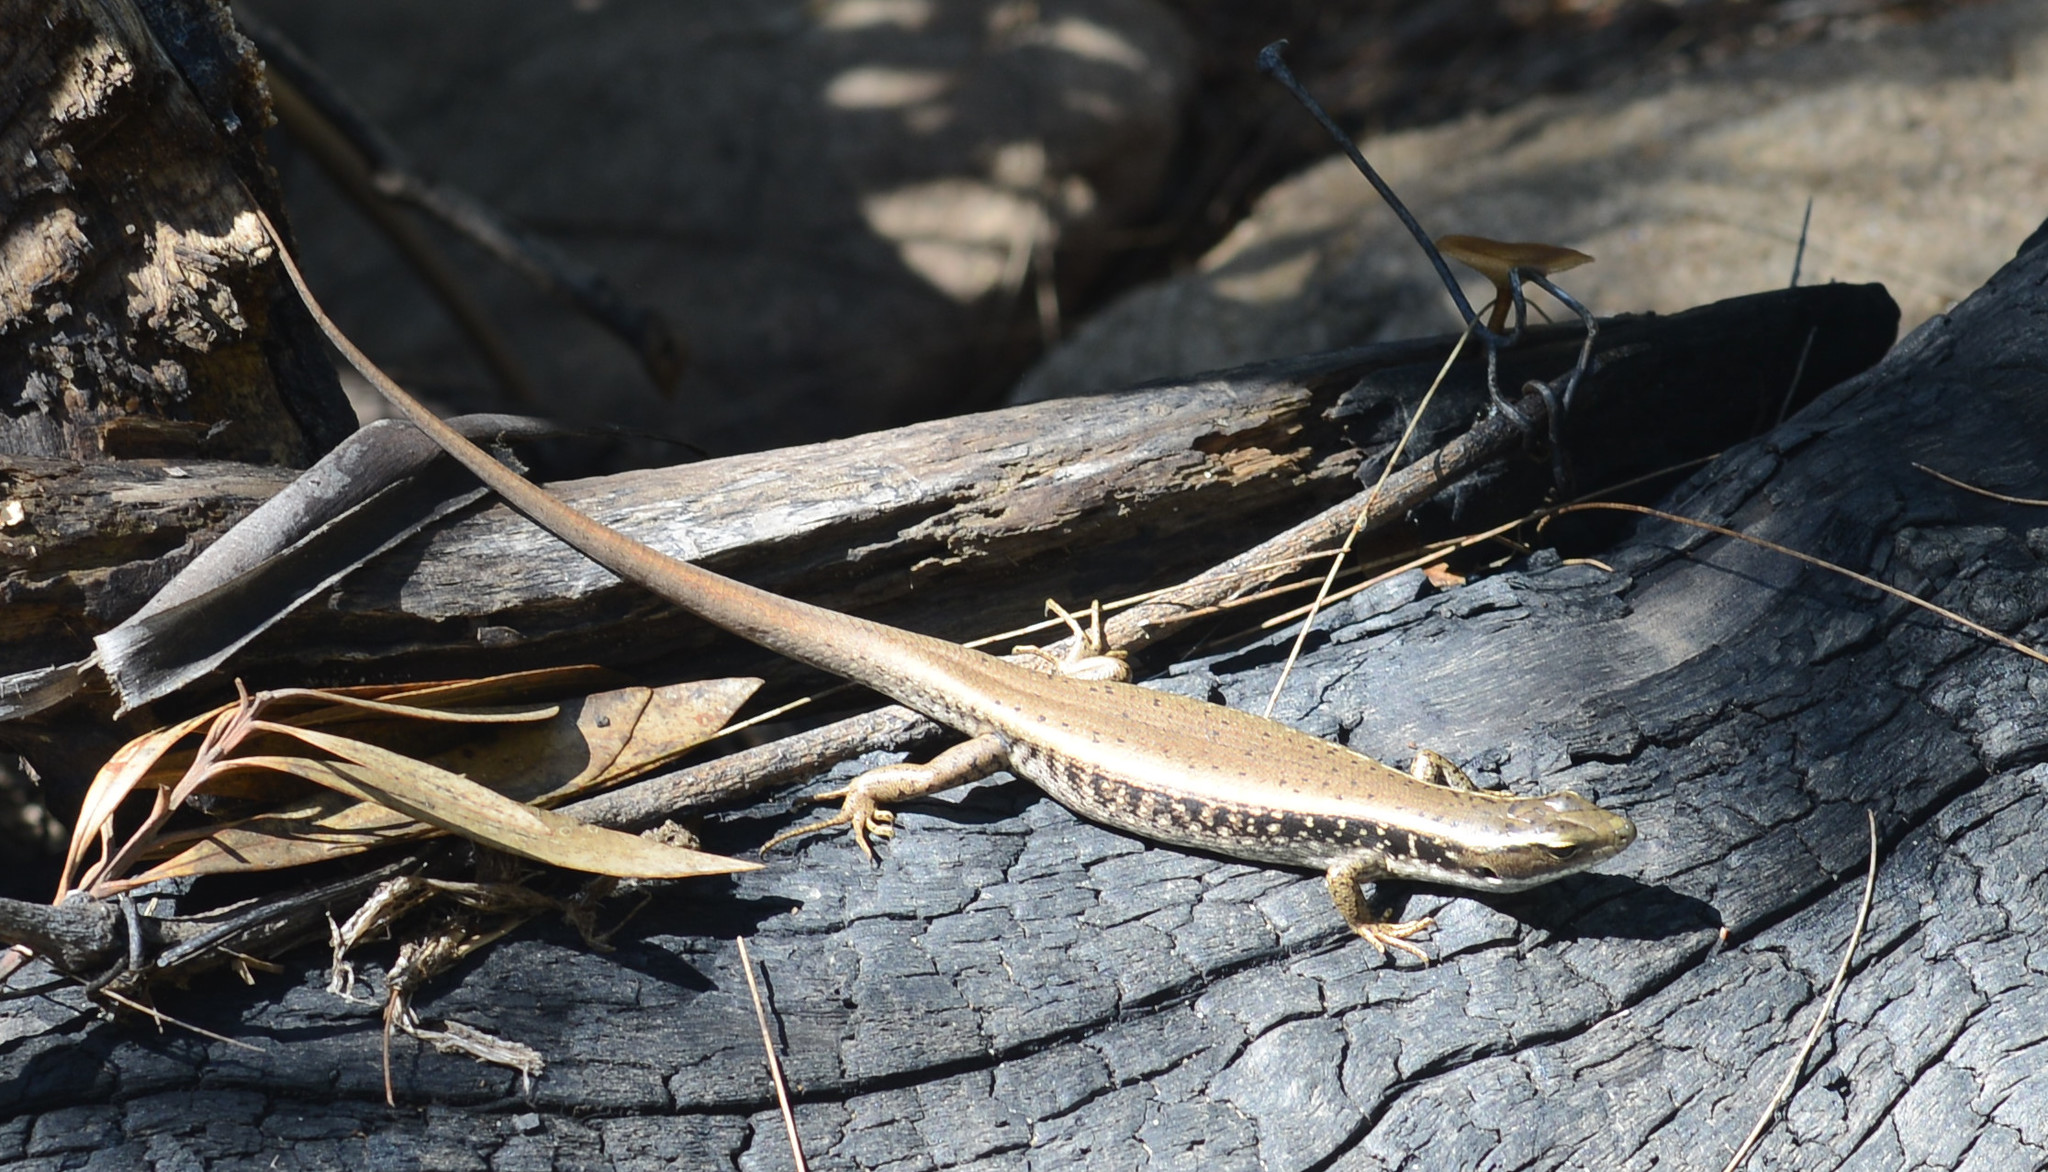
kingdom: Animalia
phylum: Chordata
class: Squamata
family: Scincidae
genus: Eulamprus
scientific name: Eulamprus quoyii
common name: Eastern water skink
